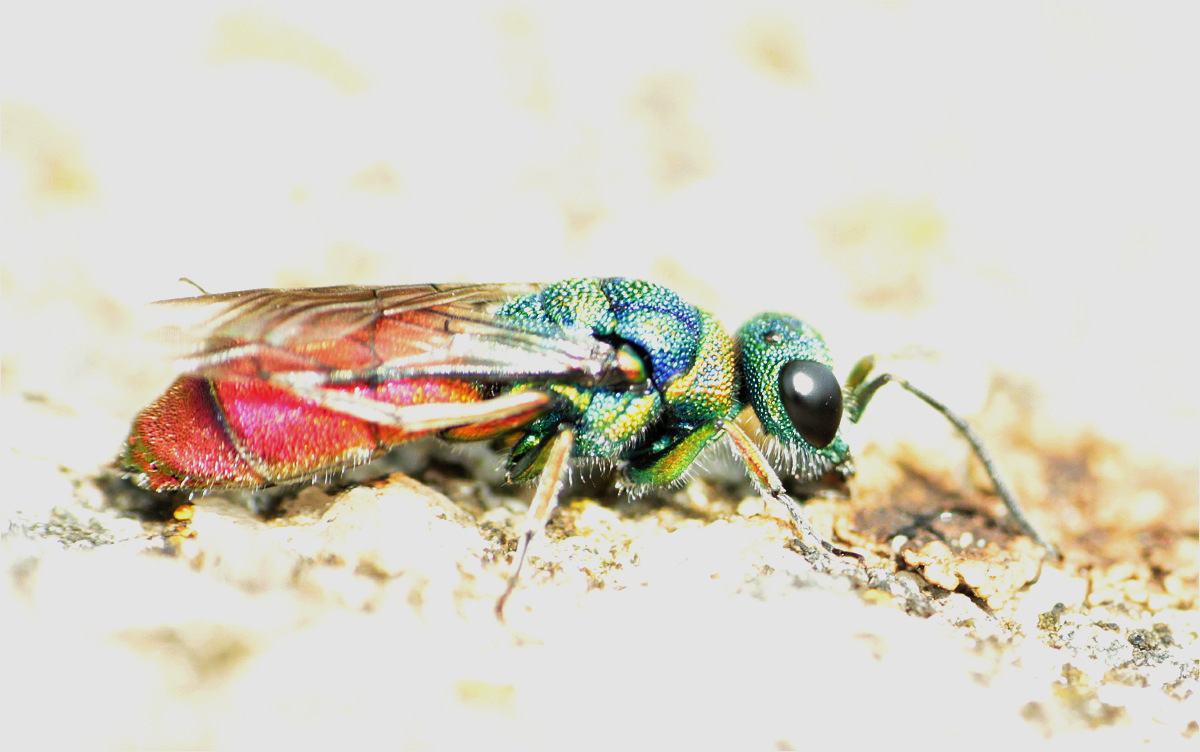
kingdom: Animalia
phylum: Arthropoda
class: Insecta
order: Hymenoptera
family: Chrysididae
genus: Chrysis
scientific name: Chrysis ruddii
